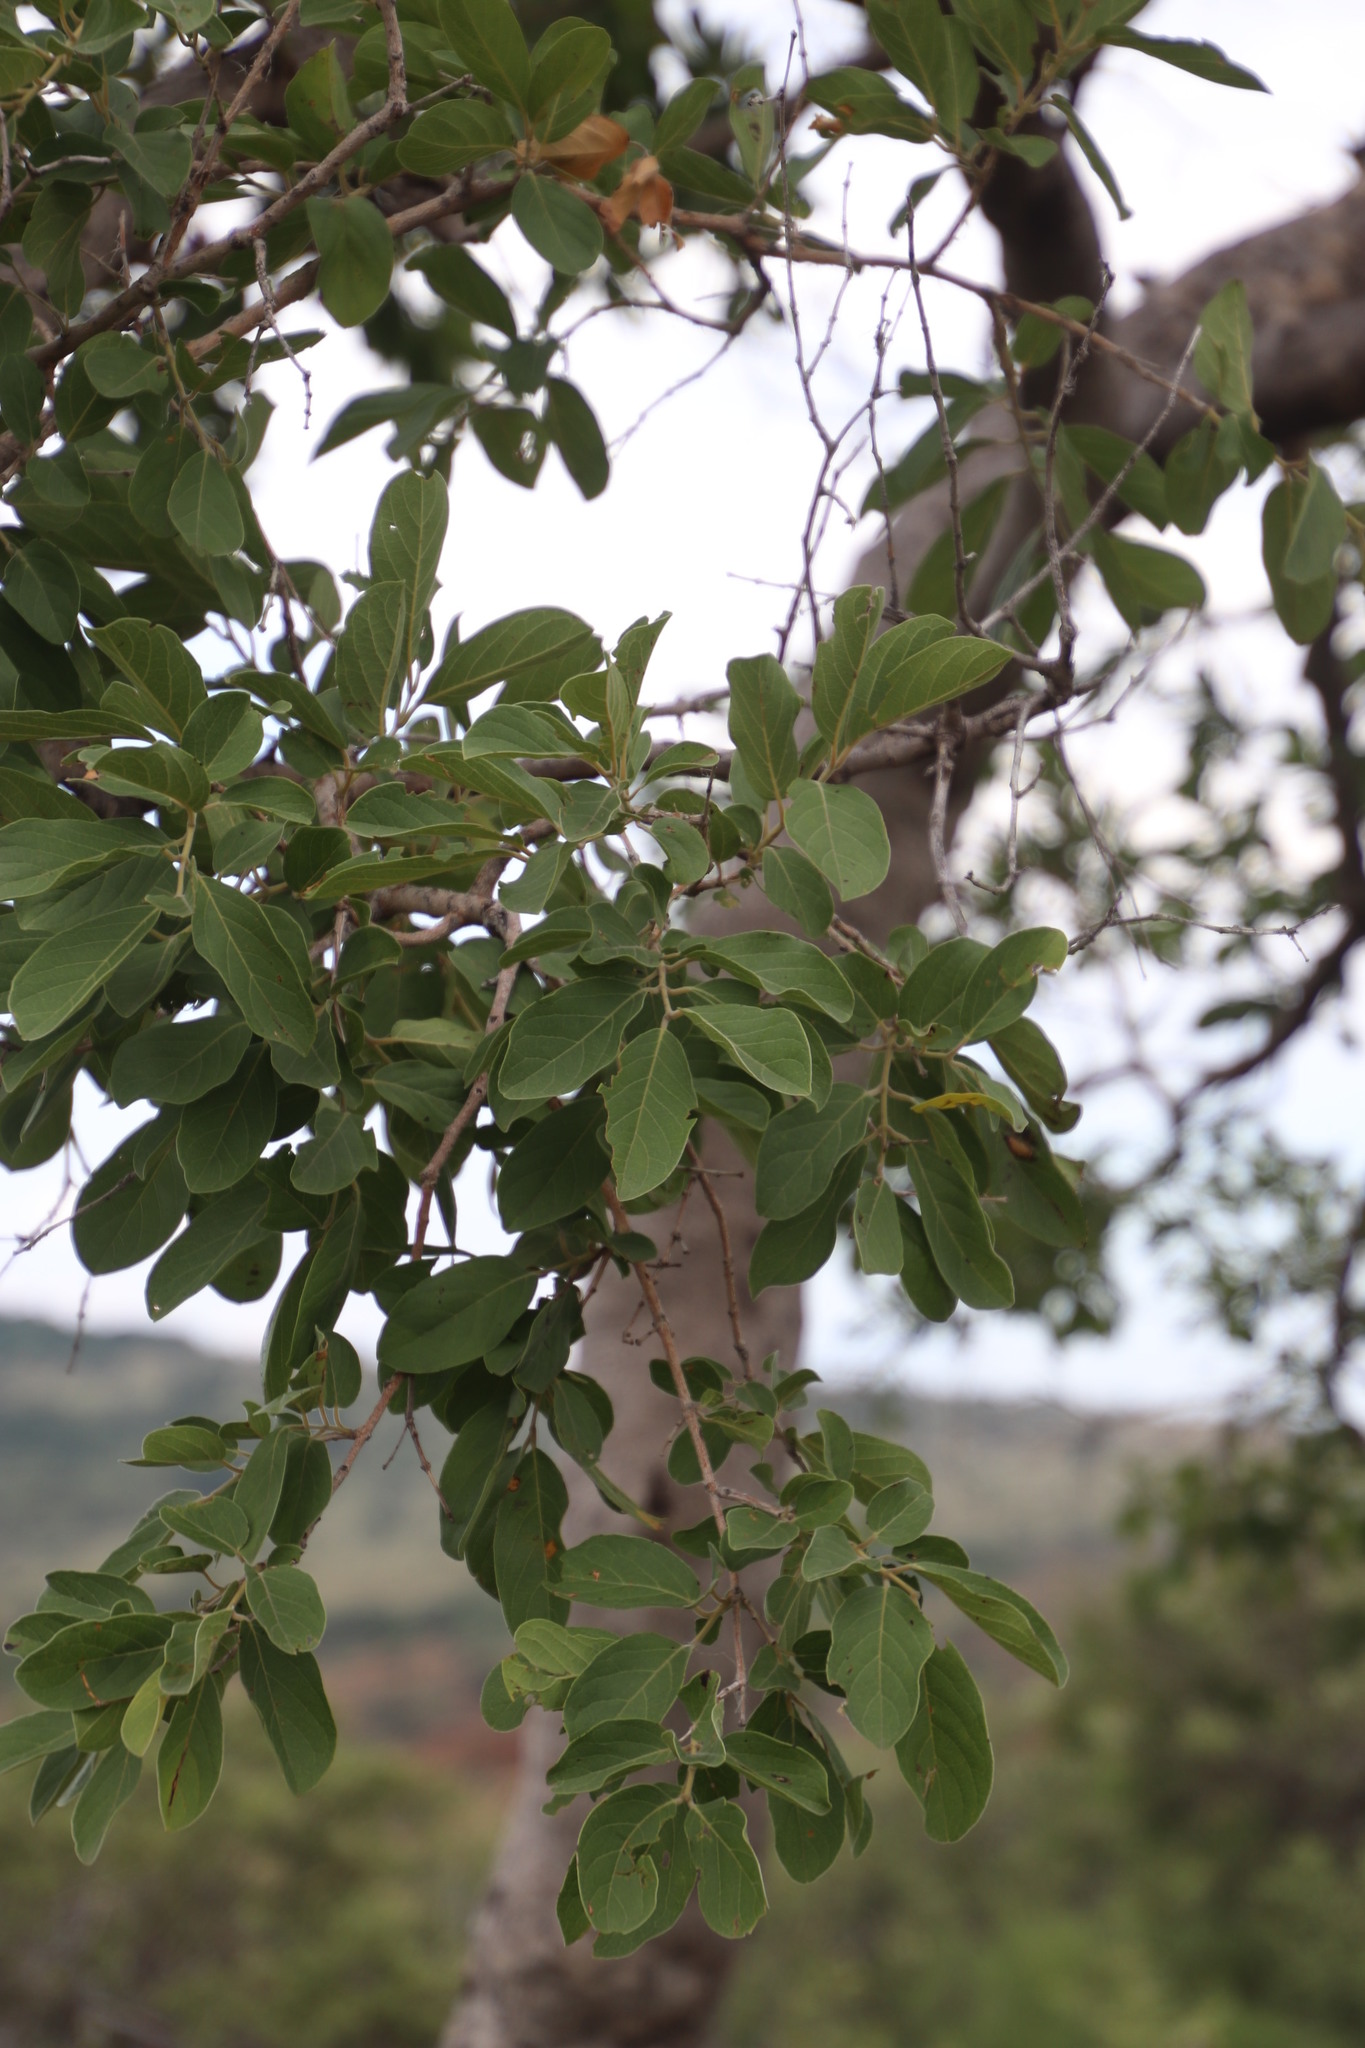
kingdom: Plantae
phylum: Tracheophyta
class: Magnoliopsida
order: Myrtales
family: Combretaceae
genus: Combretum
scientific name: Combretum zeyheri
